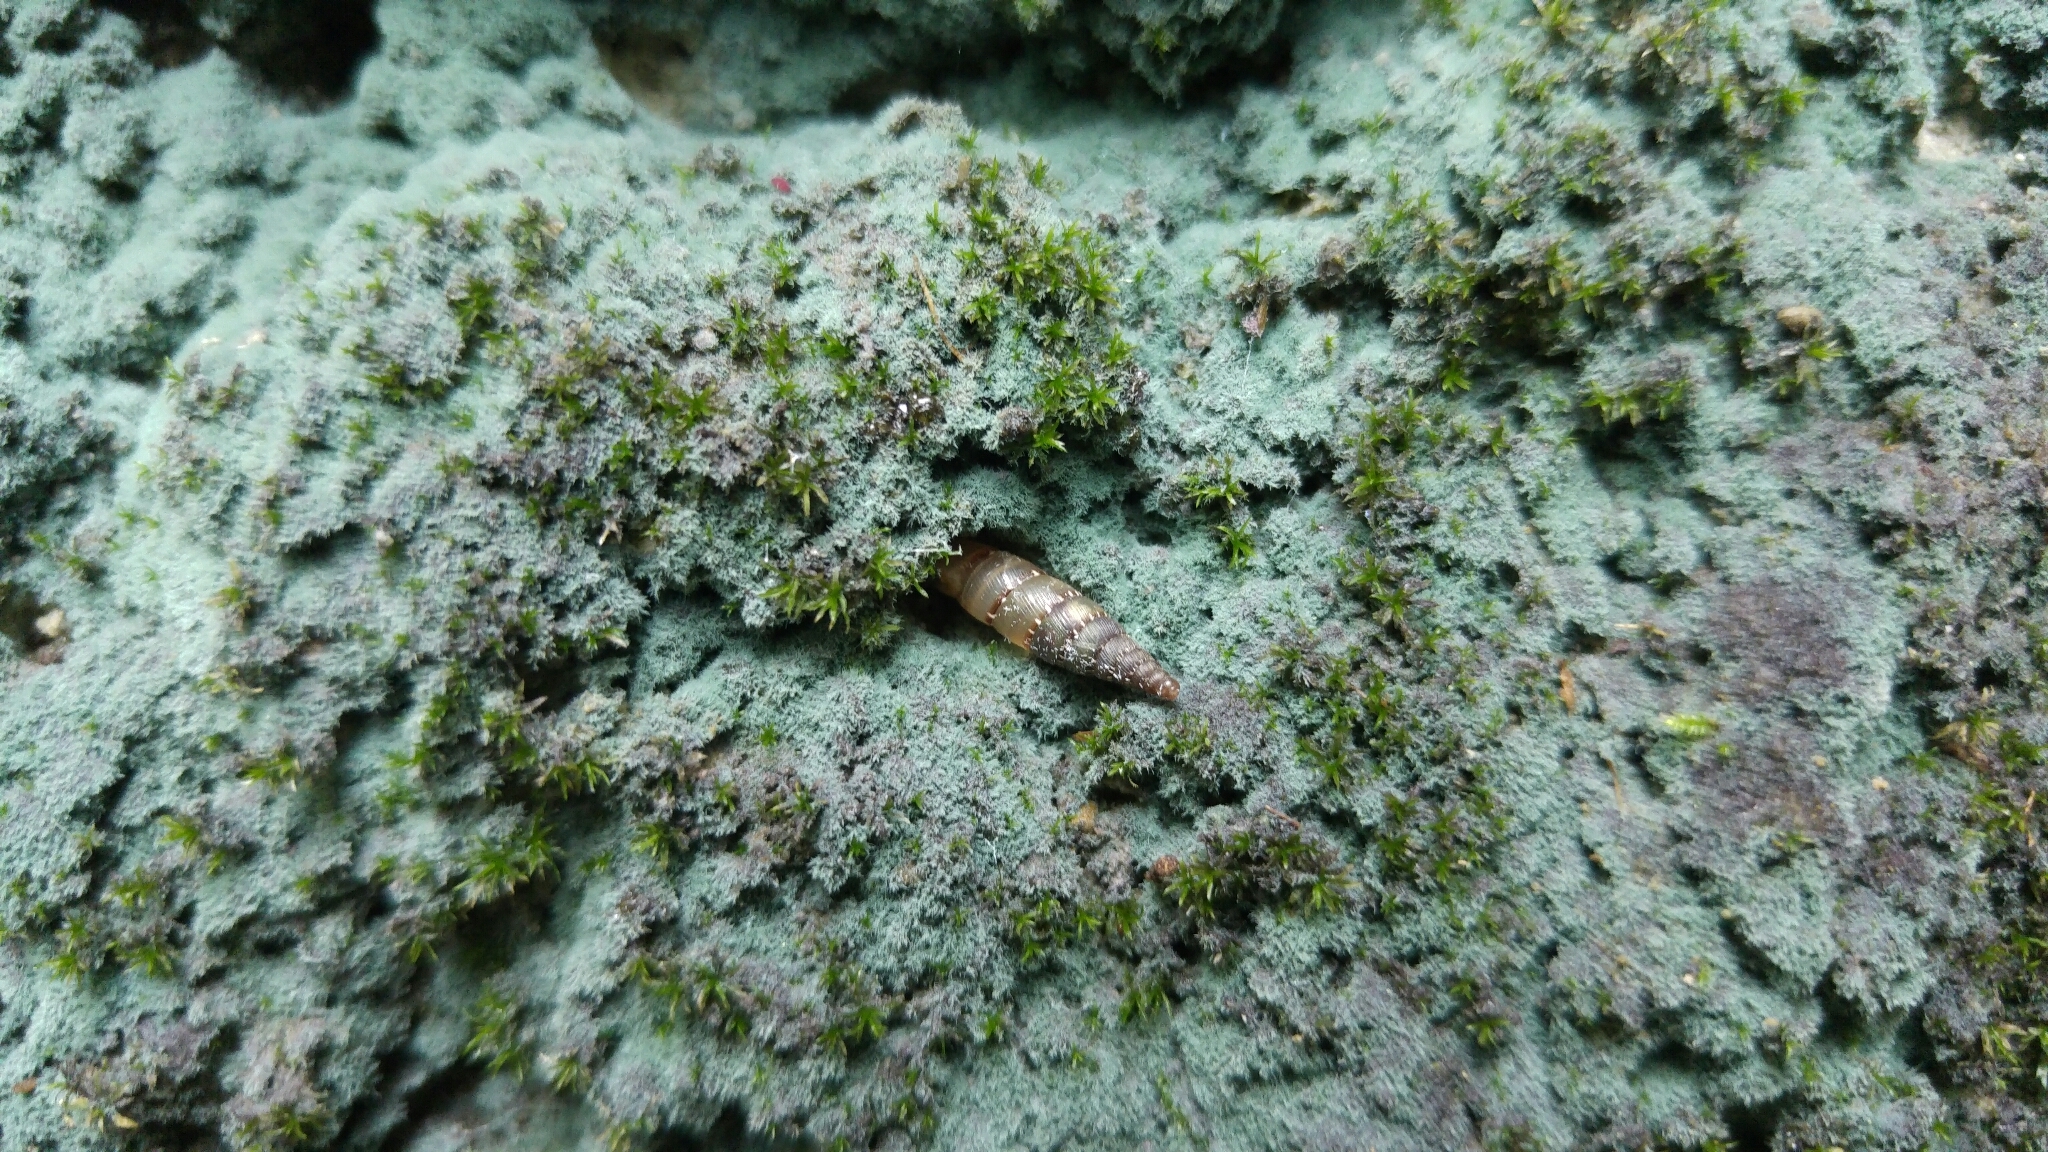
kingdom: Animalia
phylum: Mollusca
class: Gastropoda
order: Stylommatophora
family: Clausiliidae
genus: Papillifera
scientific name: Papillifera papillaris
